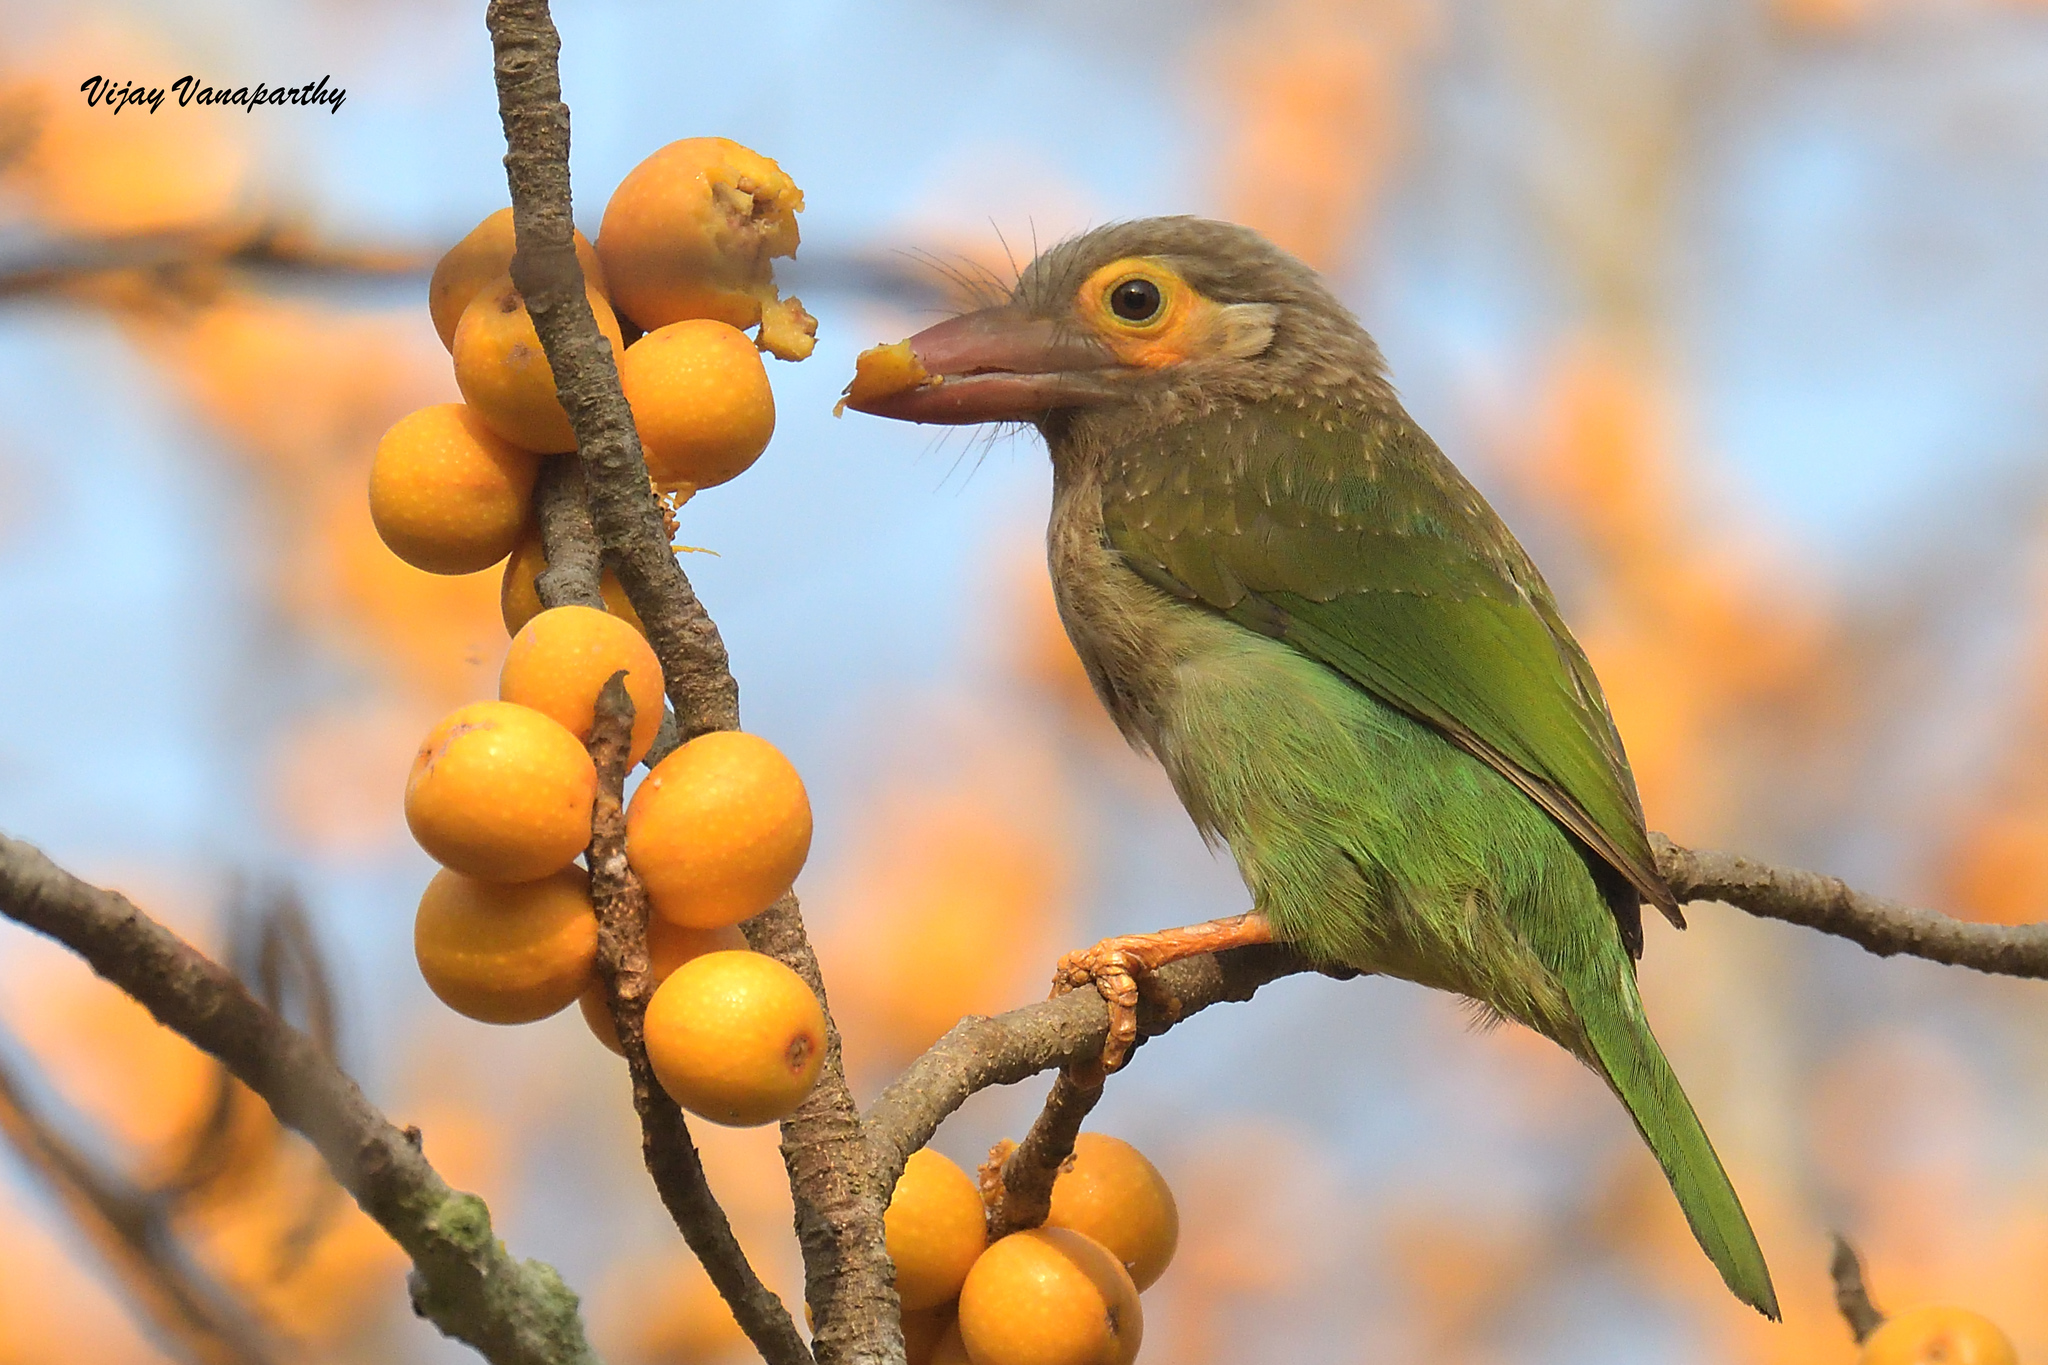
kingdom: Animalia
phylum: Chordata
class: Aves
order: Piciformes
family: Megalaimidae
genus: Psilopogon
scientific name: Psilopogon zeylanicus
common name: Brown-headed barbet
